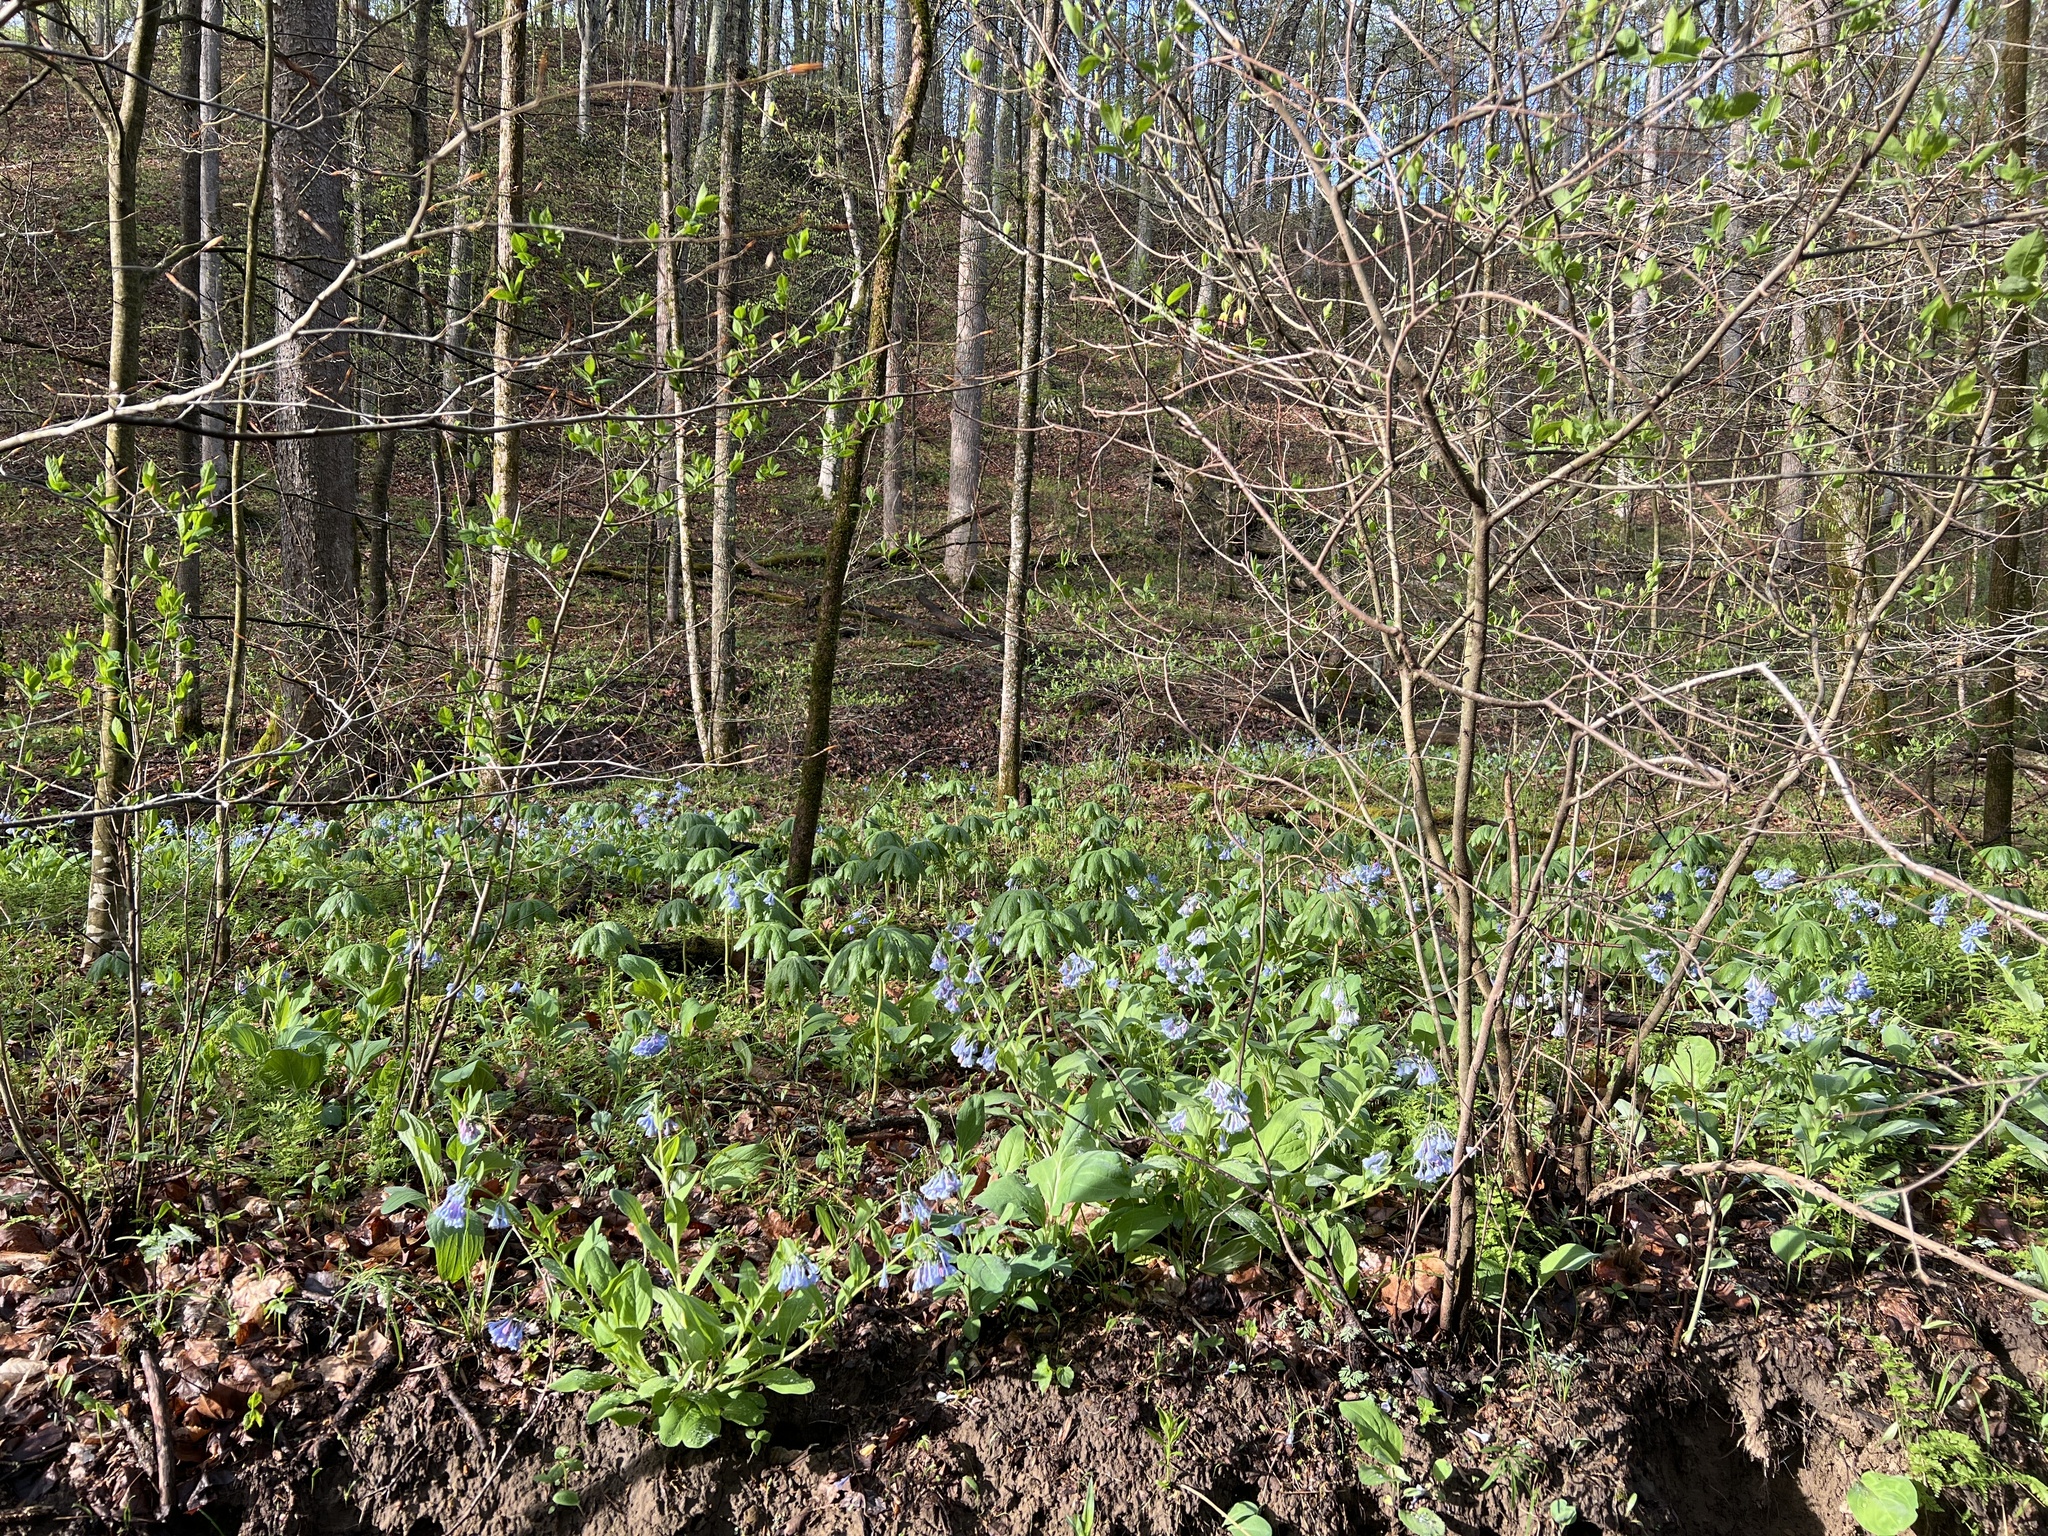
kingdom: Plantae
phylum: Tracheophyta
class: Magnoliopsida
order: Boraginales
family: Boraginaceae
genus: Mertensia
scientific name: Mertensia virginica
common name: Virginia bluebells
